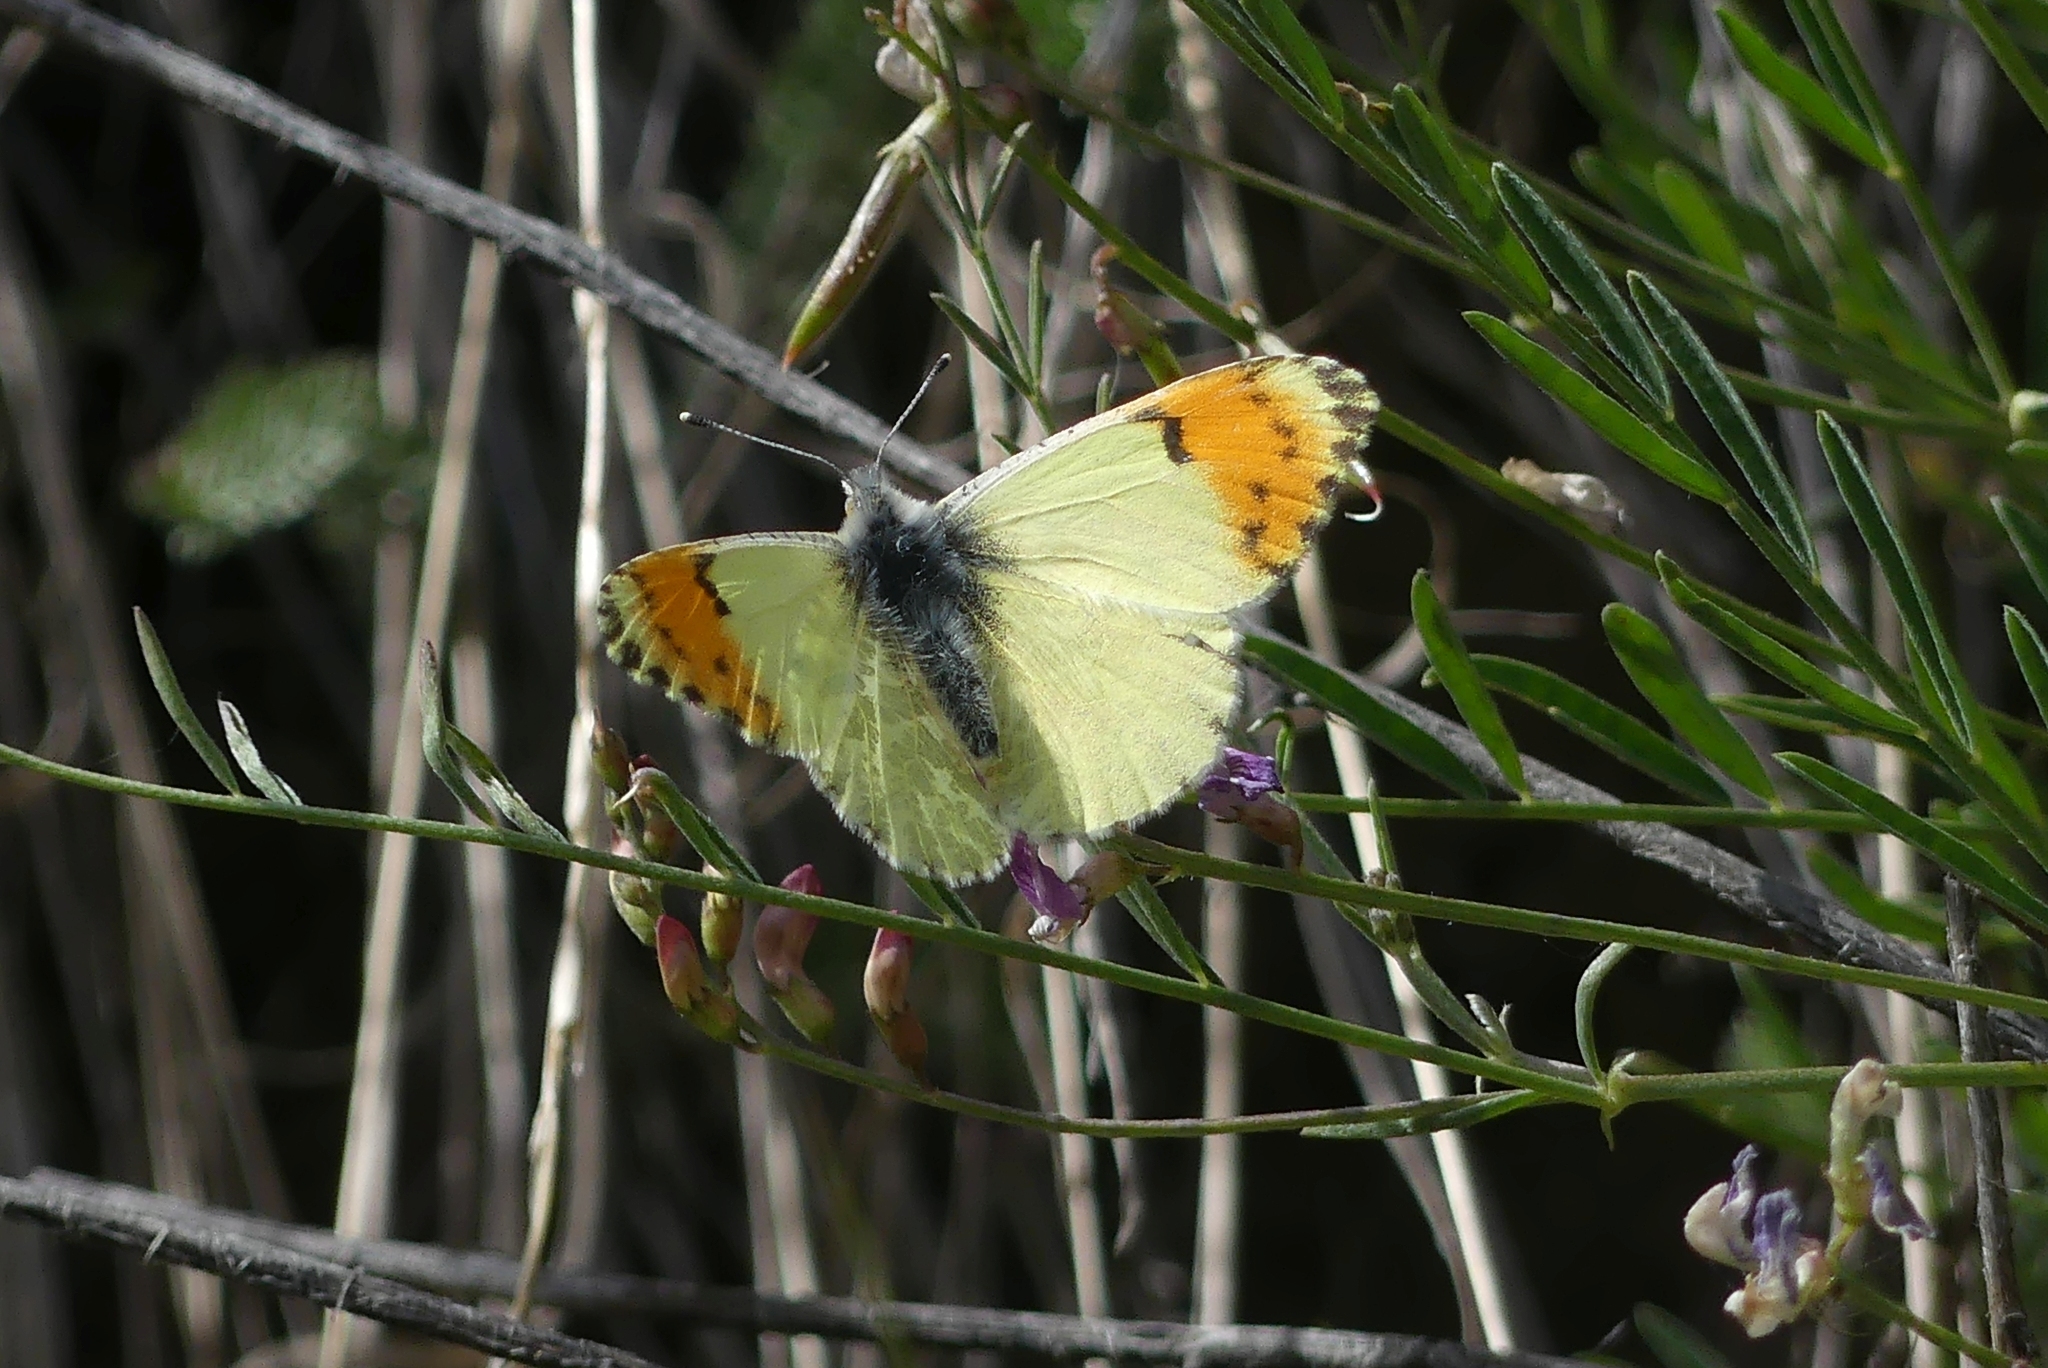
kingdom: Animalia
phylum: Arthropoda
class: Insecta
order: Lepidoptera
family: Pieridae
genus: Anthocharis
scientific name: Anthocharis julia
